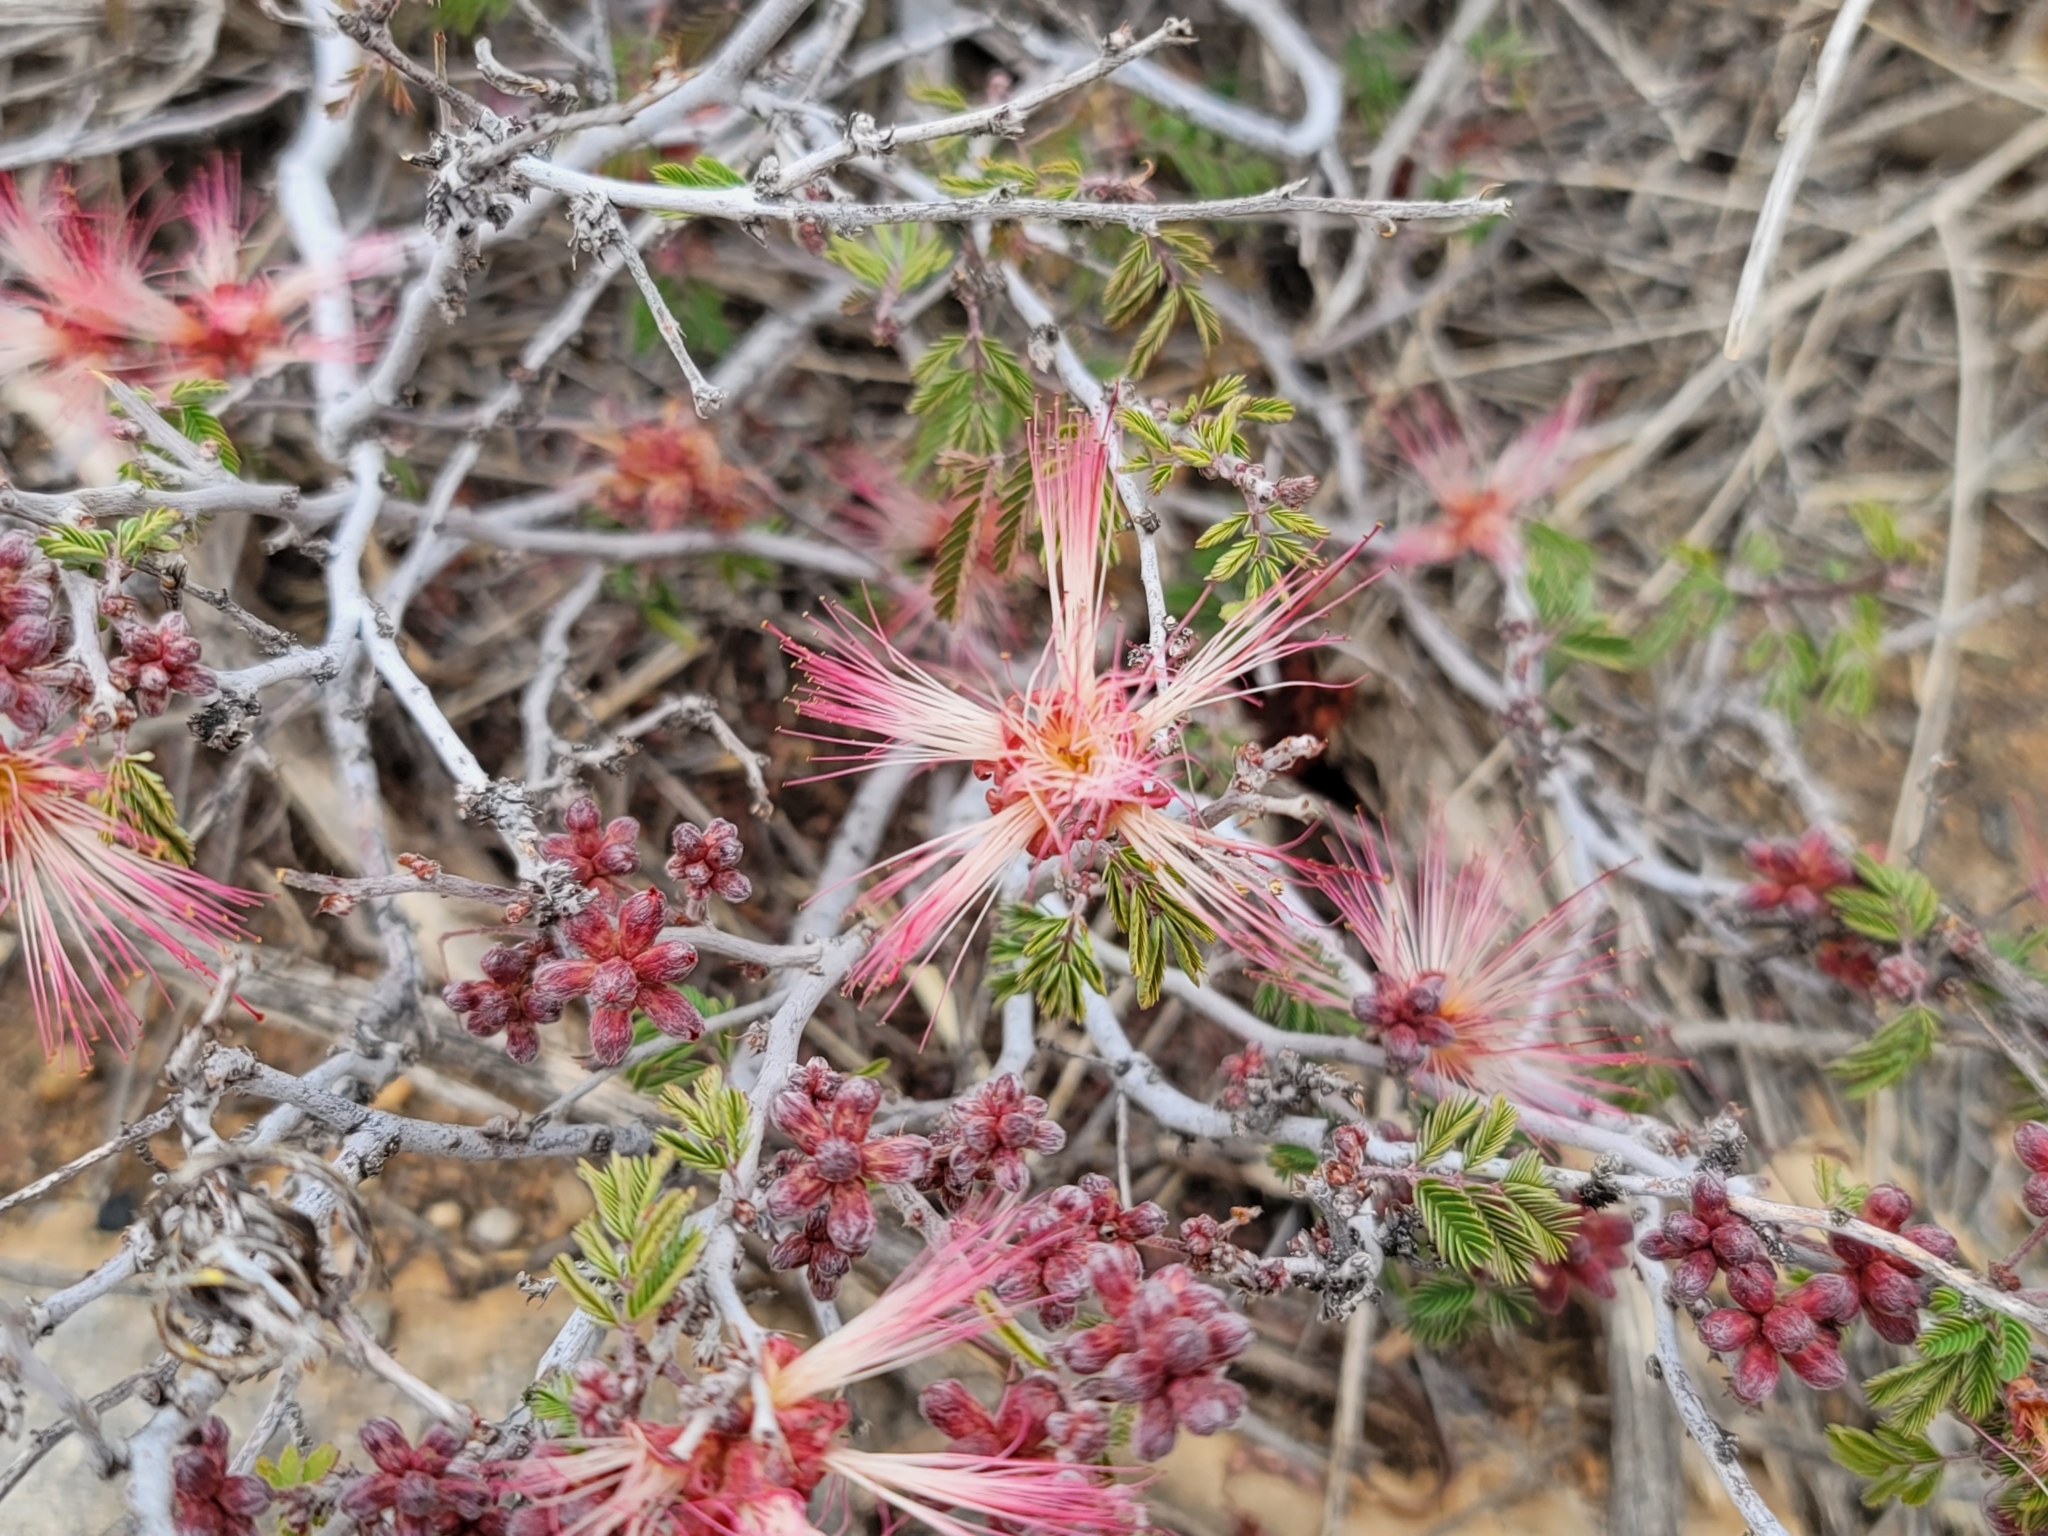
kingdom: Plantae
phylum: Tracheophyta
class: Magnoliopsida
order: Fabales
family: Fabaceae
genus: Calliandra
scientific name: Calliandra eriophylla
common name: Fairy-duster
